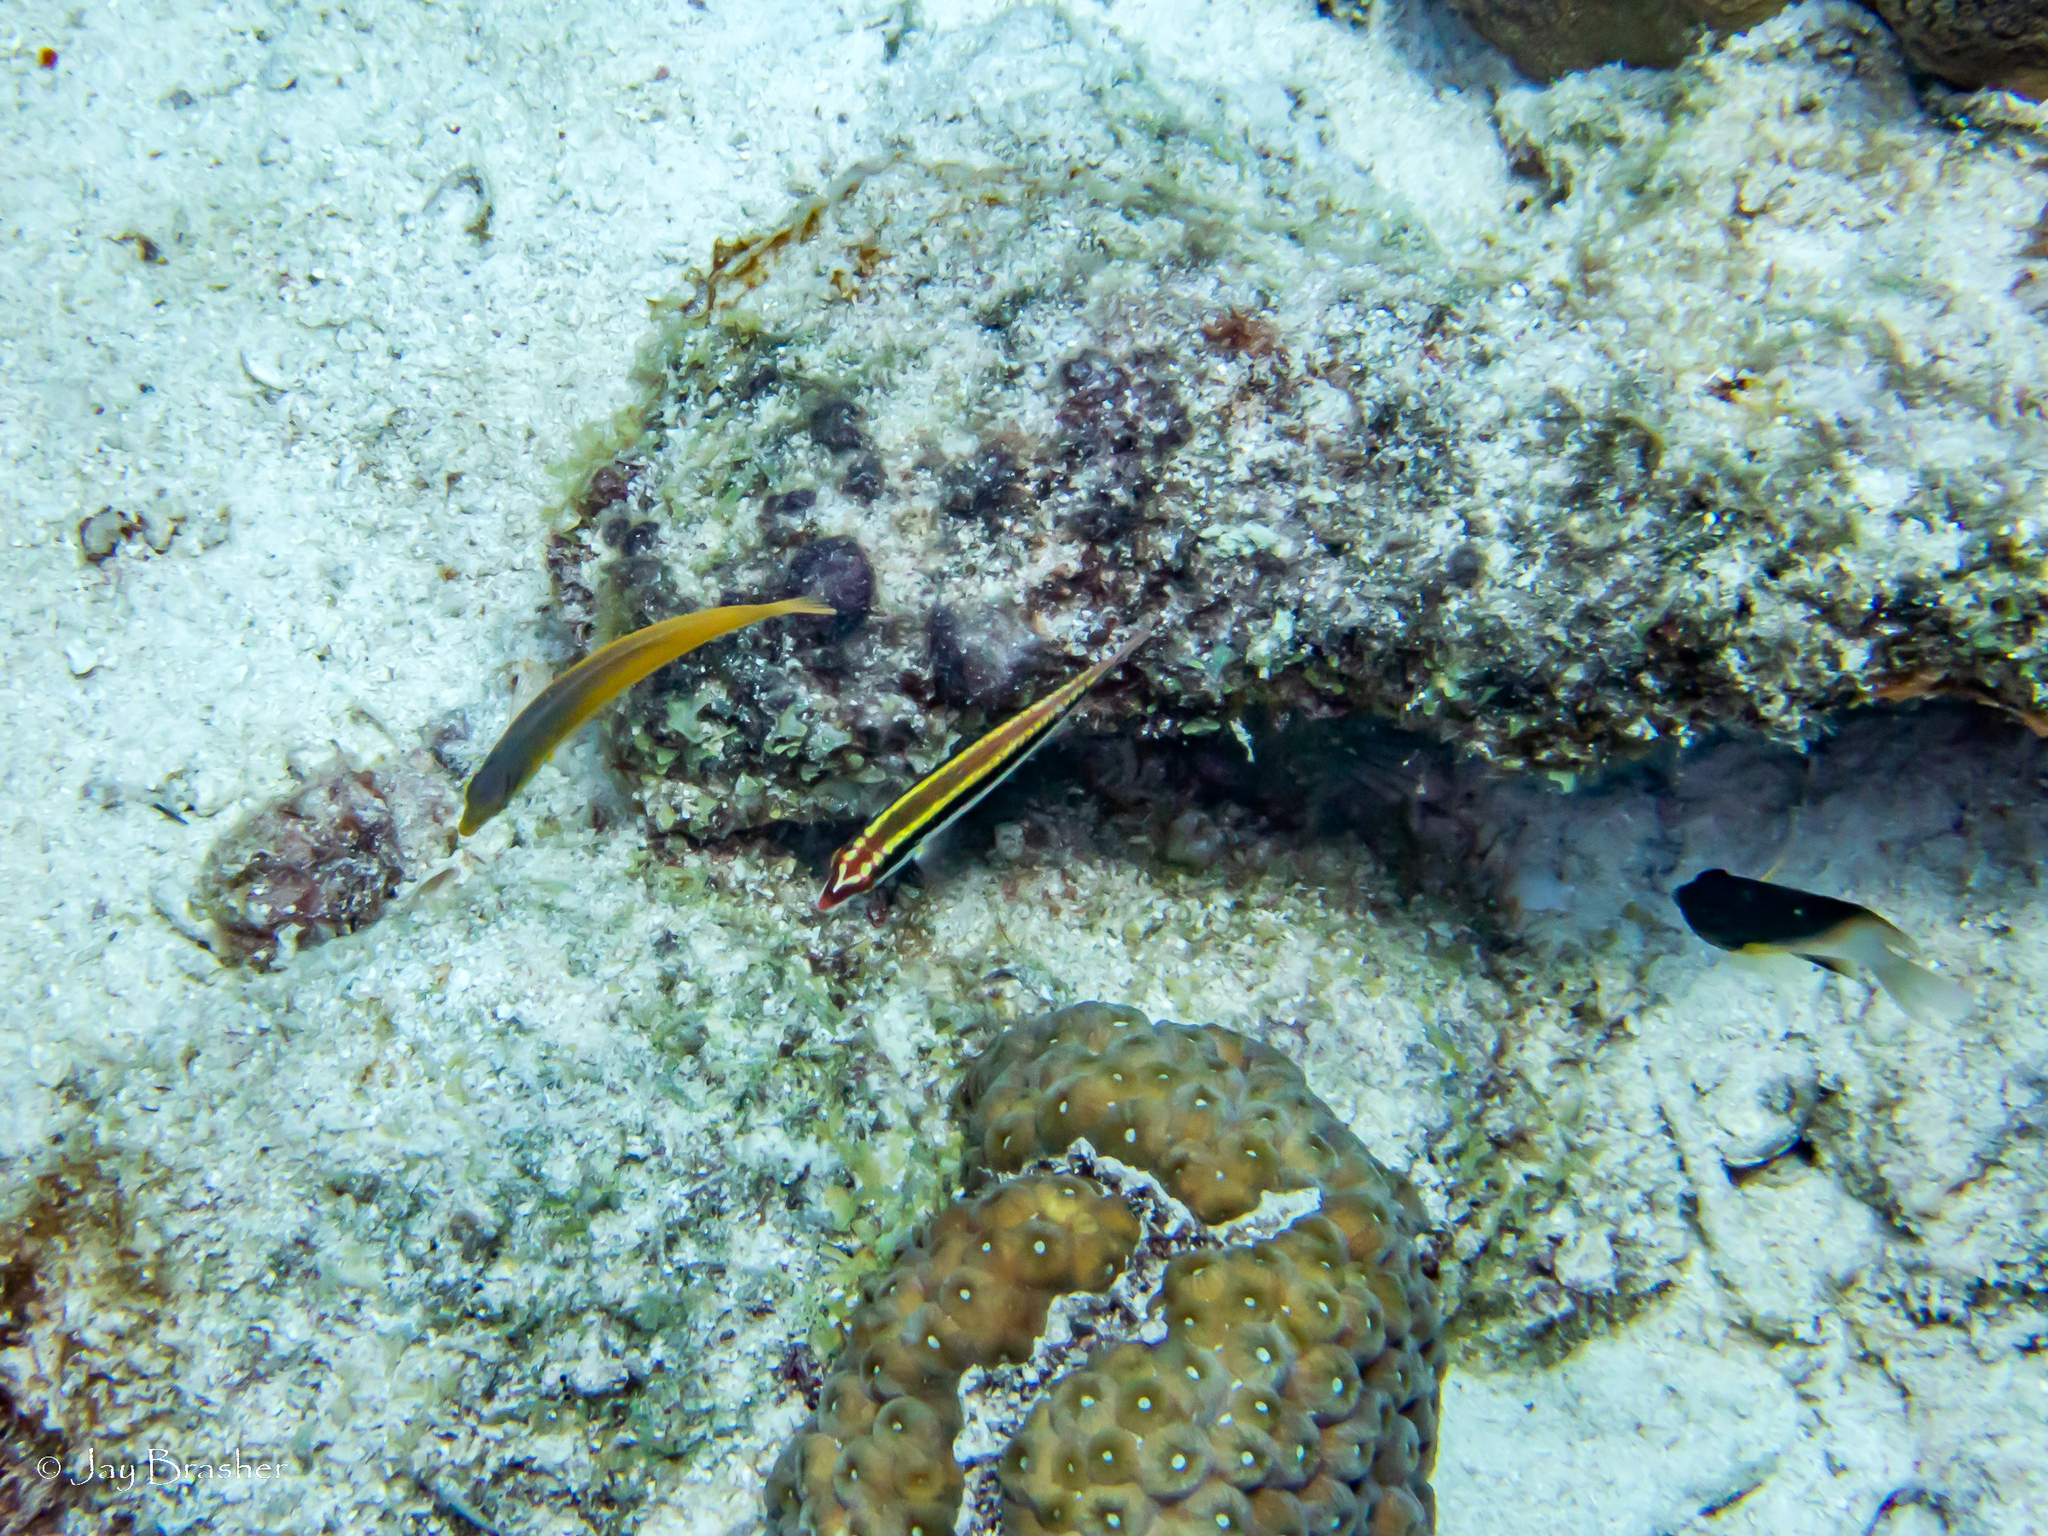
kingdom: Animalia
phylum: Chordata
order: Perciformes
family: Pomacentridae
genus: Stegastes
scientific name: Stegastes partitus
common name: Bicolor damselfish
